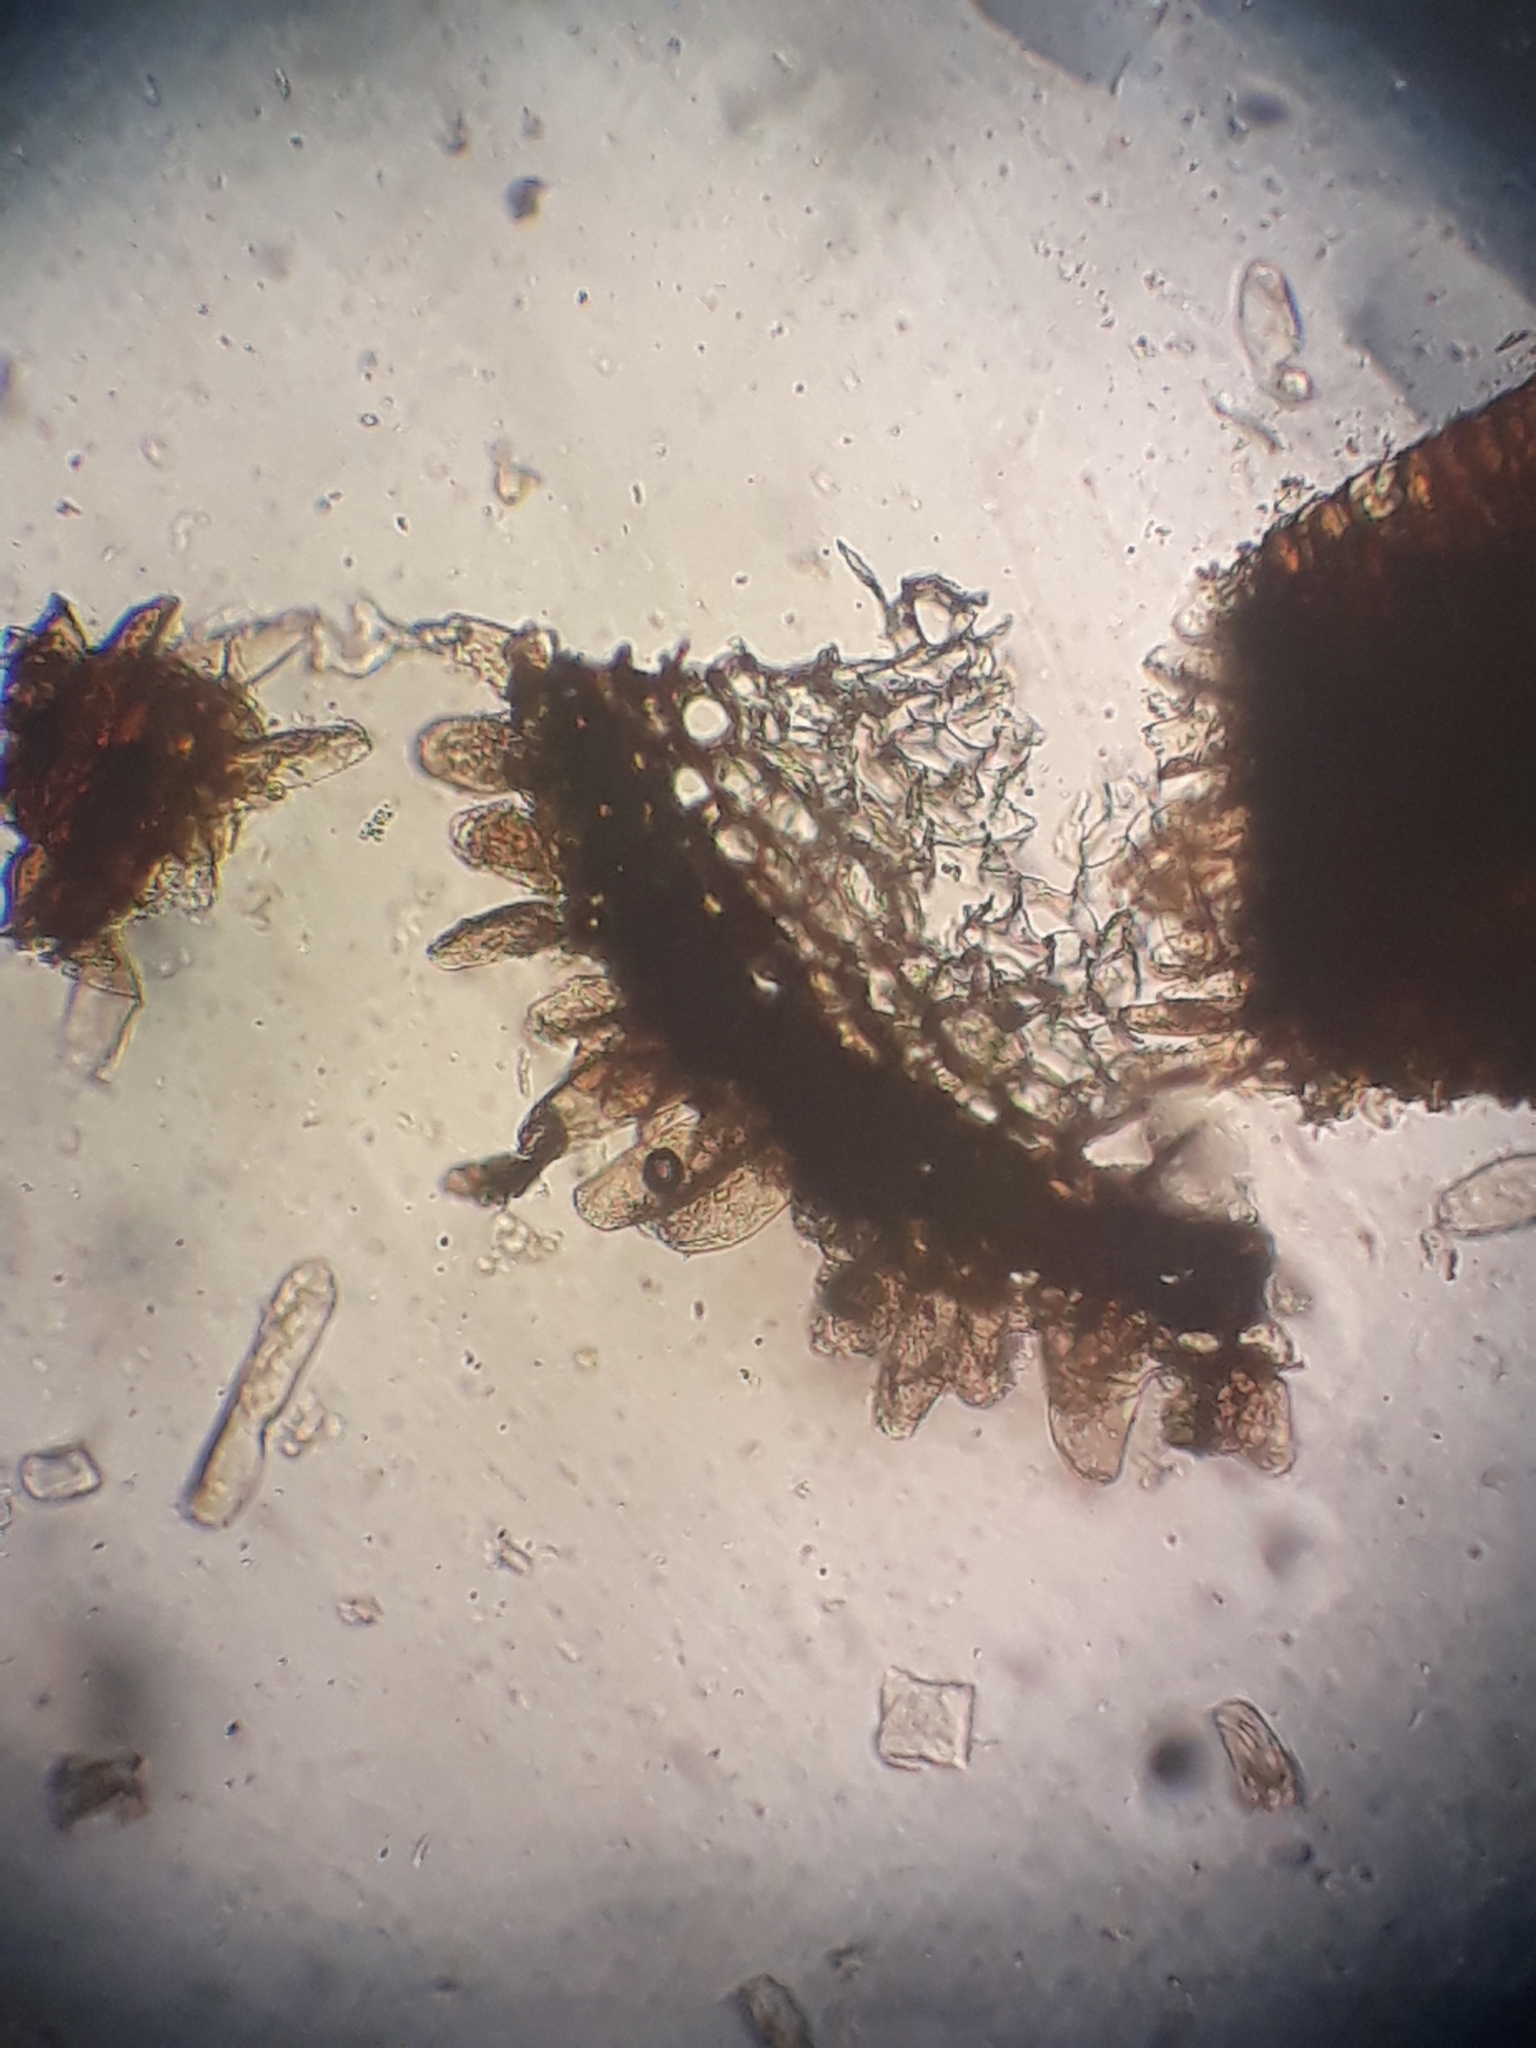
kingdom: Plantae
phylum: Marchantiophyta
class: Jungermanniopsida
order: Metzgeriales
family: Aneuraceae
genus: Riccardia
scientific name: Riccardia eriocaula
